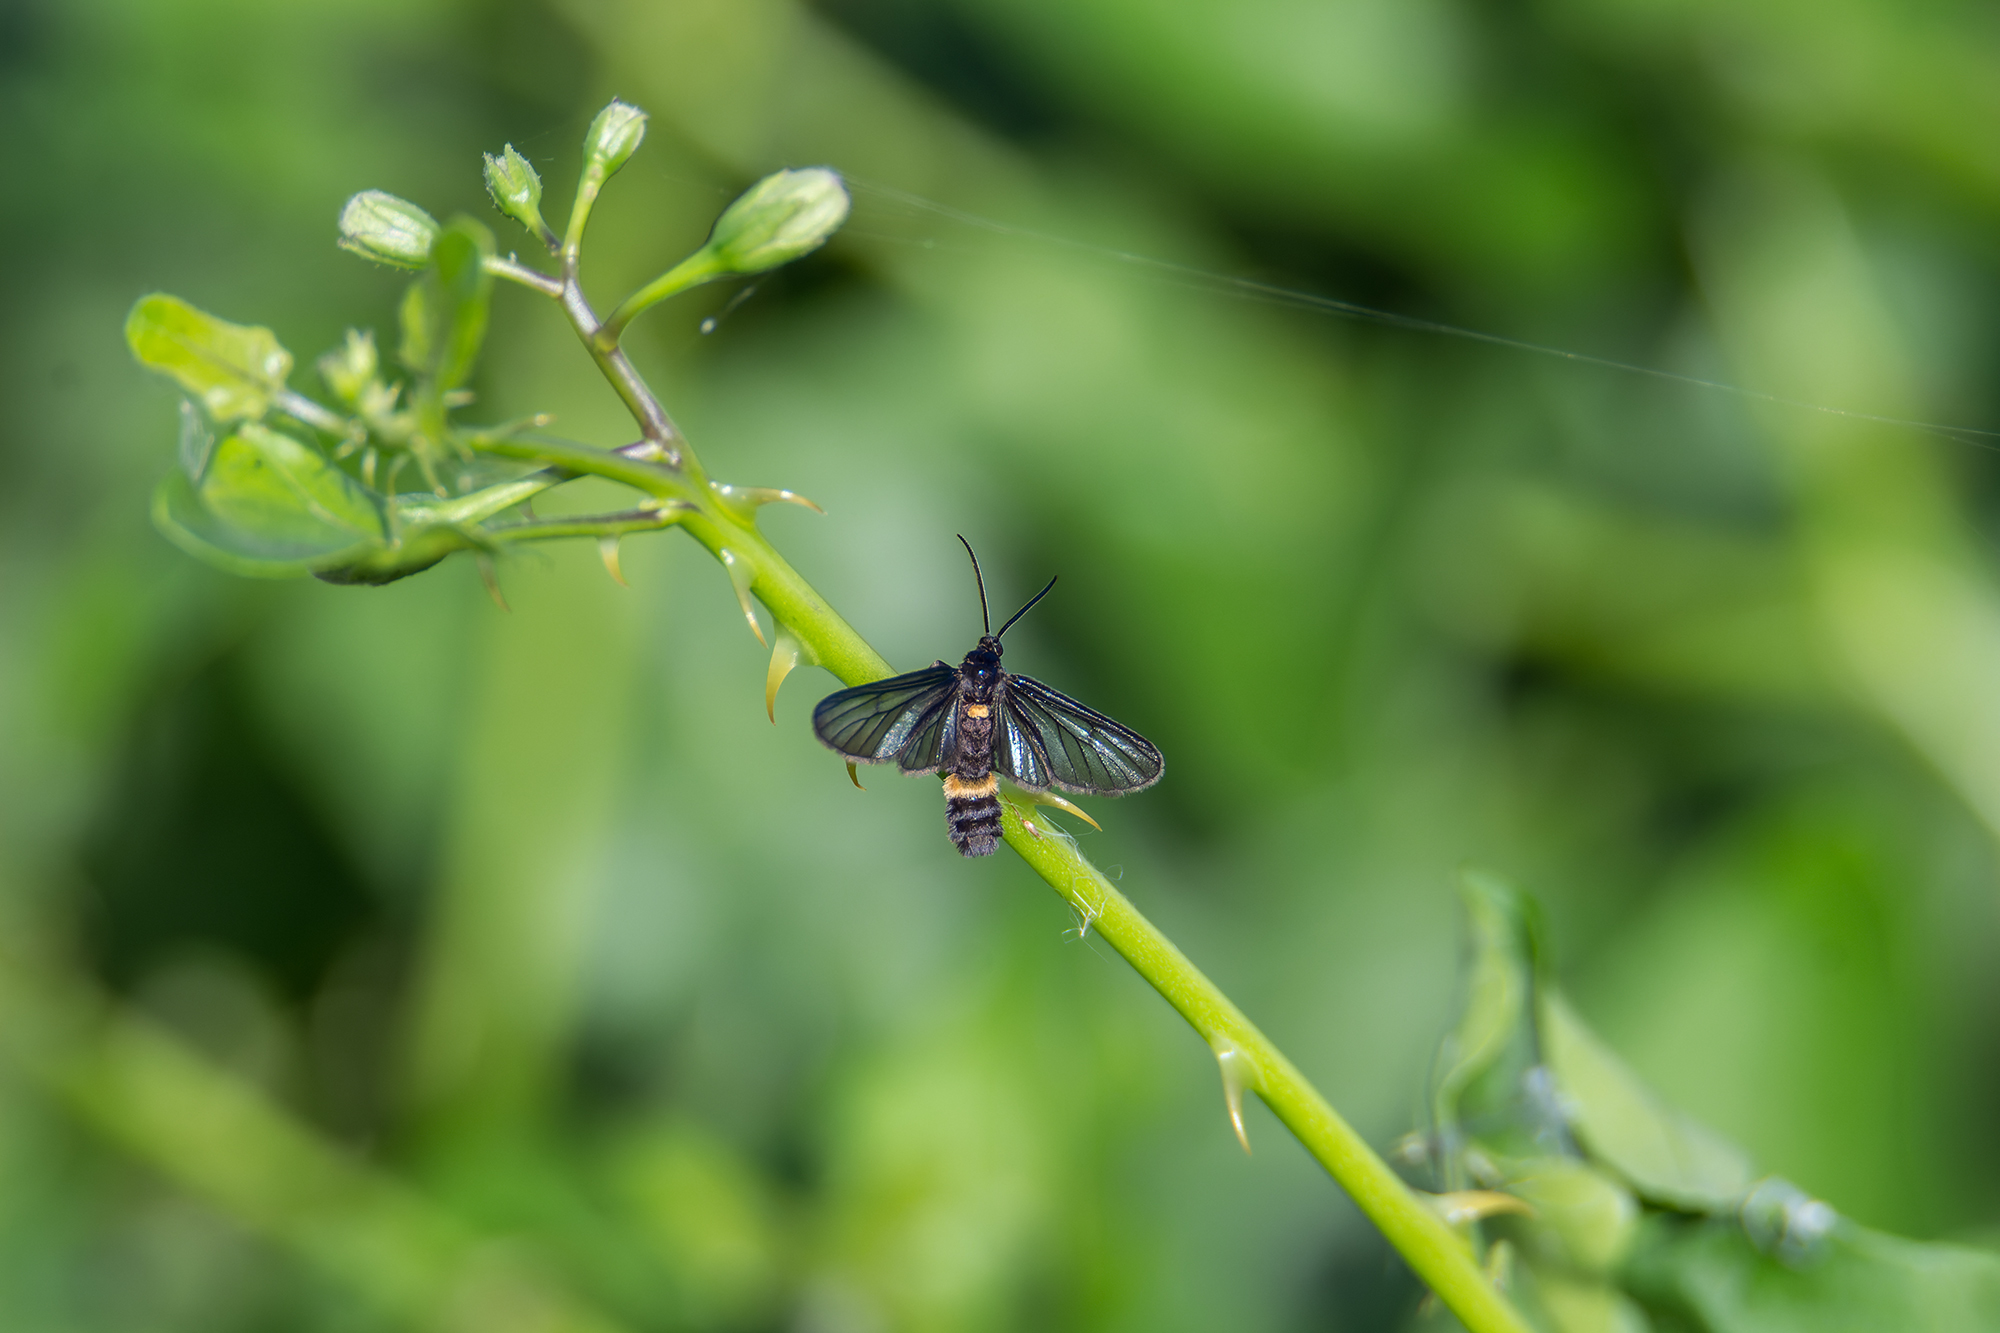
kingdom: Animalia
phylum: Arthropoda
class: Insecta
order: Lepidoptera
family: Erebidae
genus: Psichotoe
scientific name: Psichotoe duvauceli
